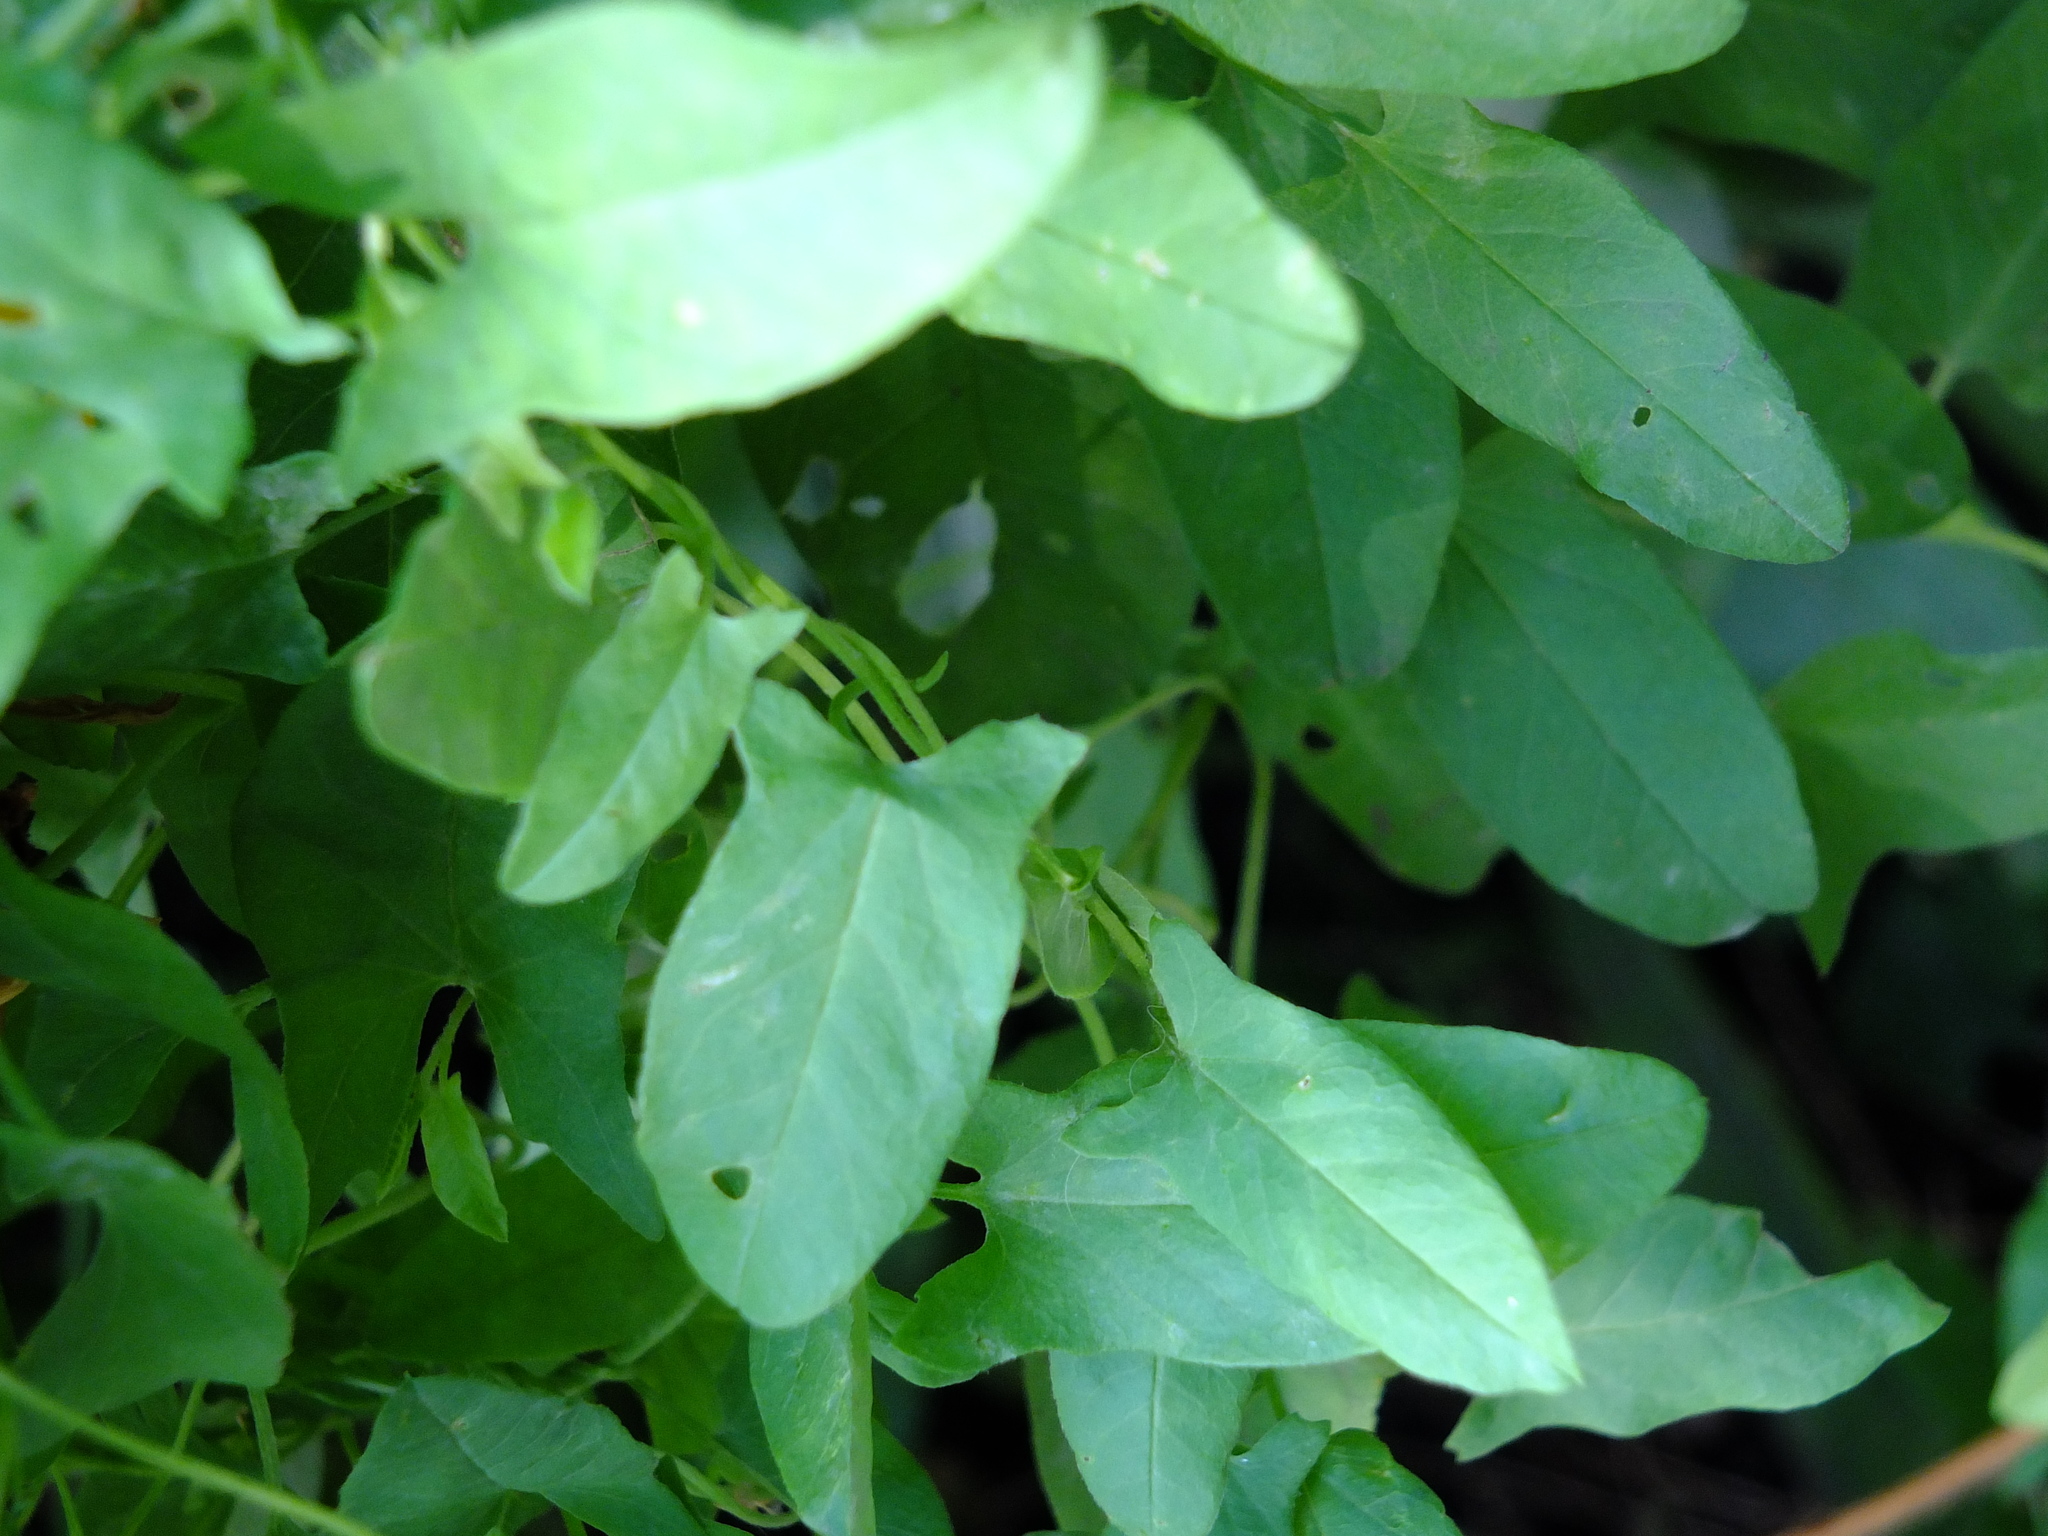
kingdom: Plantae
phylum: Tracheophyta
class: Magnoliopsida
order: Solanales
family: Convolvulaceae
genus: Convolvulus
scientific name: Convolvulus arvensis
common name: Field bindweed
